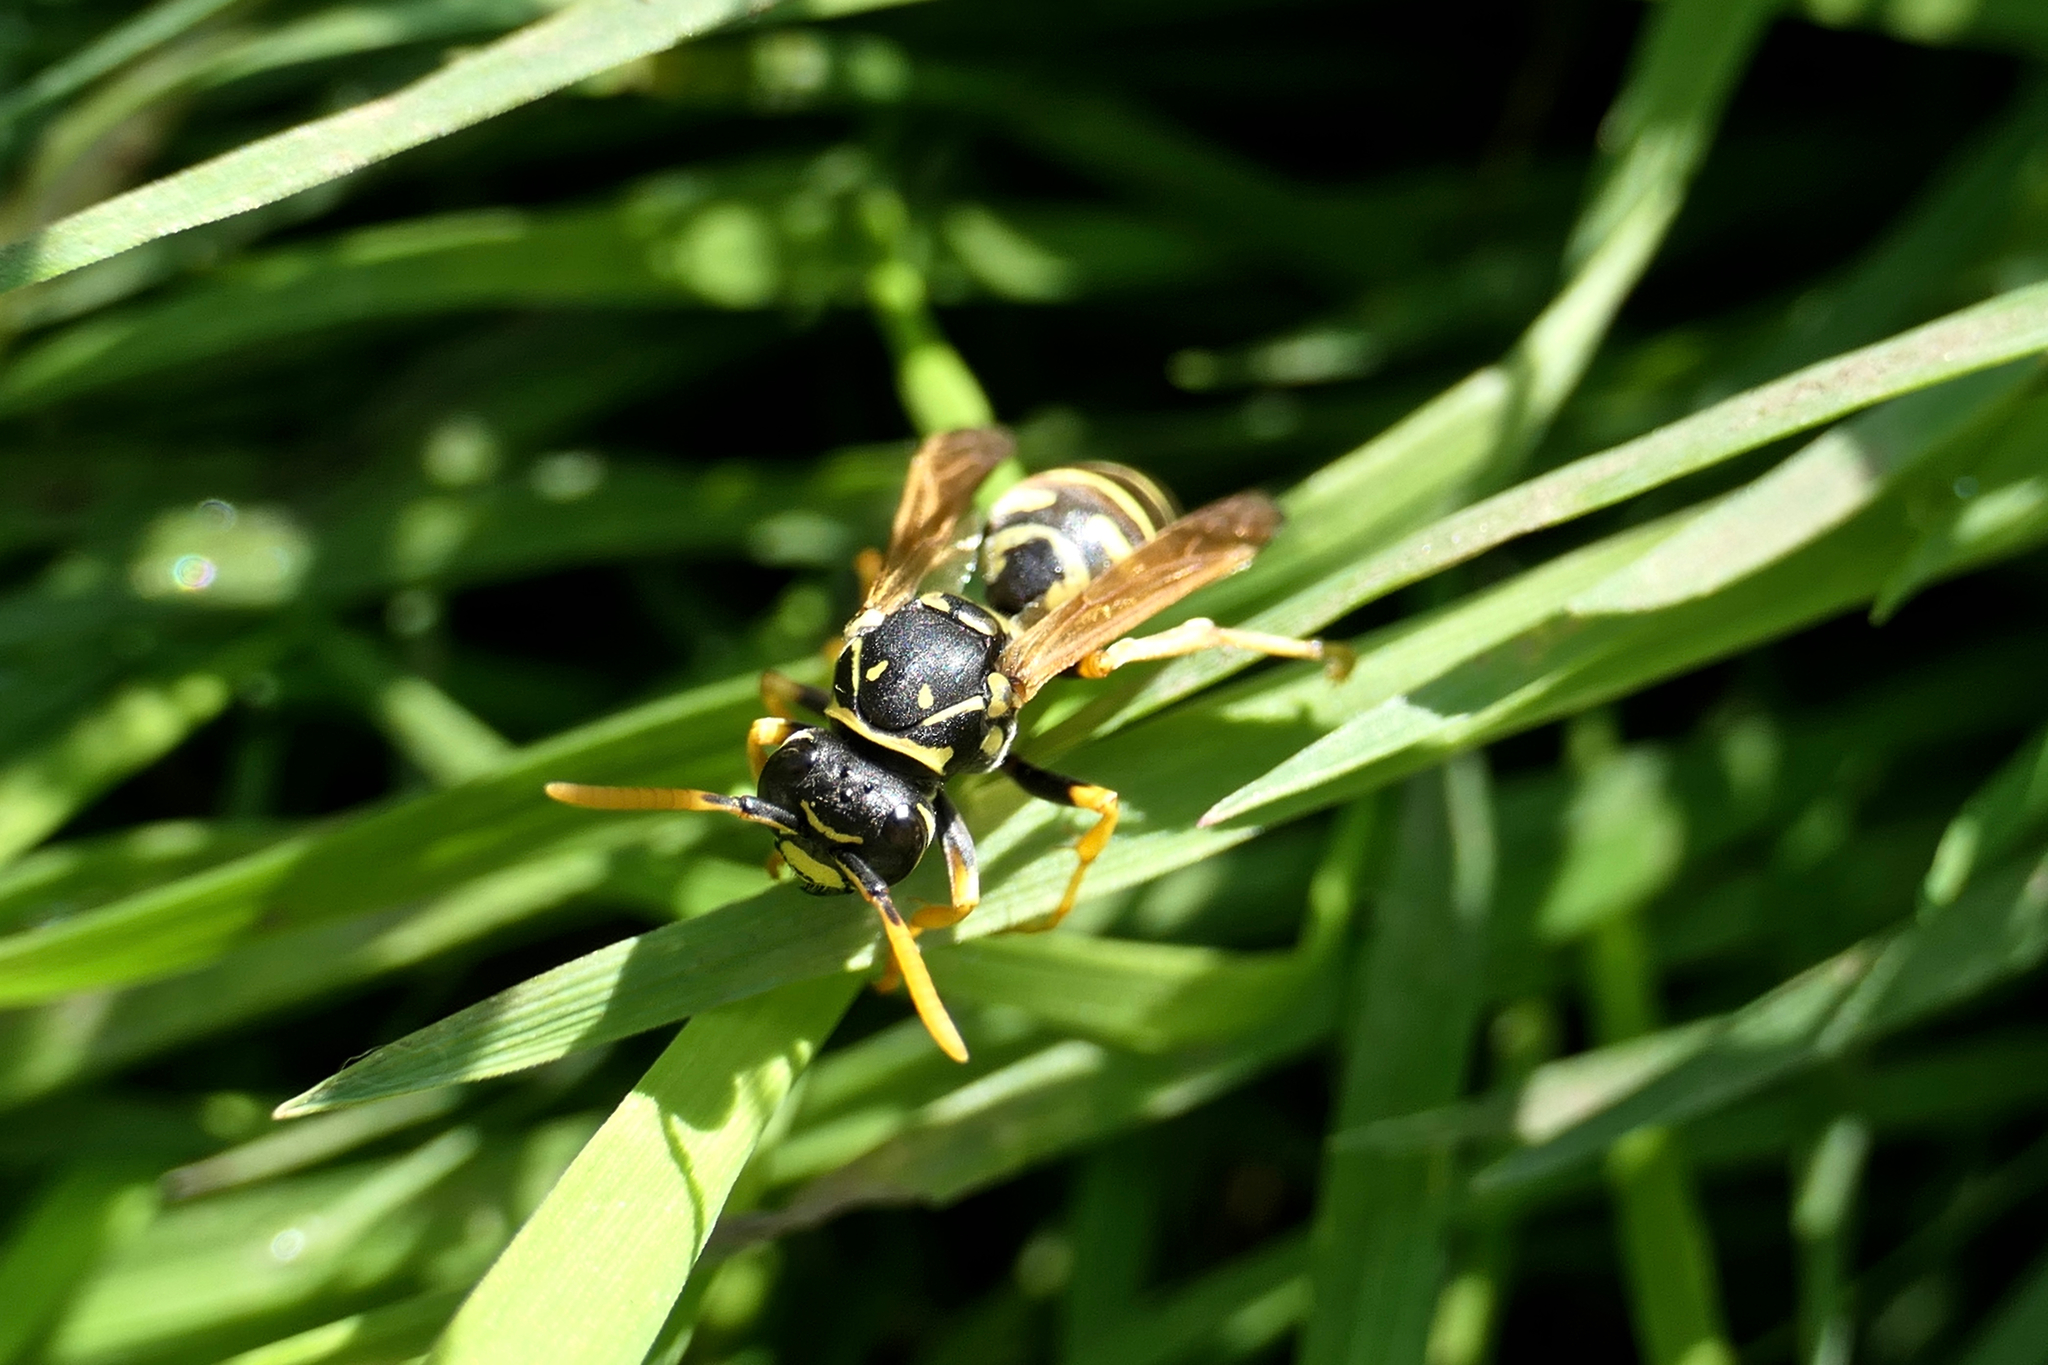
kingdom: Animalia
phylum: Arthropoda
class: Insecta
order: Hymenoptera
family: Eumenidae
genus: Polistes
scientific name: Polistes dominula
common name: Paper wasp
